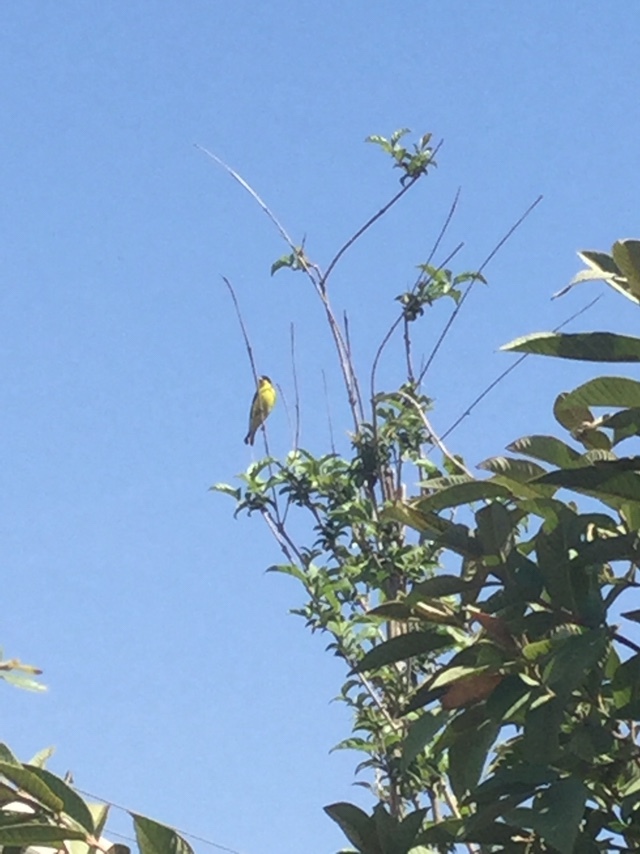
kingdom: Animalia
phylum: Chordata
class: Aves
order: Passeriformes
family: Fringillidae
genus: Spinus
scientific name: Spinus psaltria
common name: Lesser goldfinch
